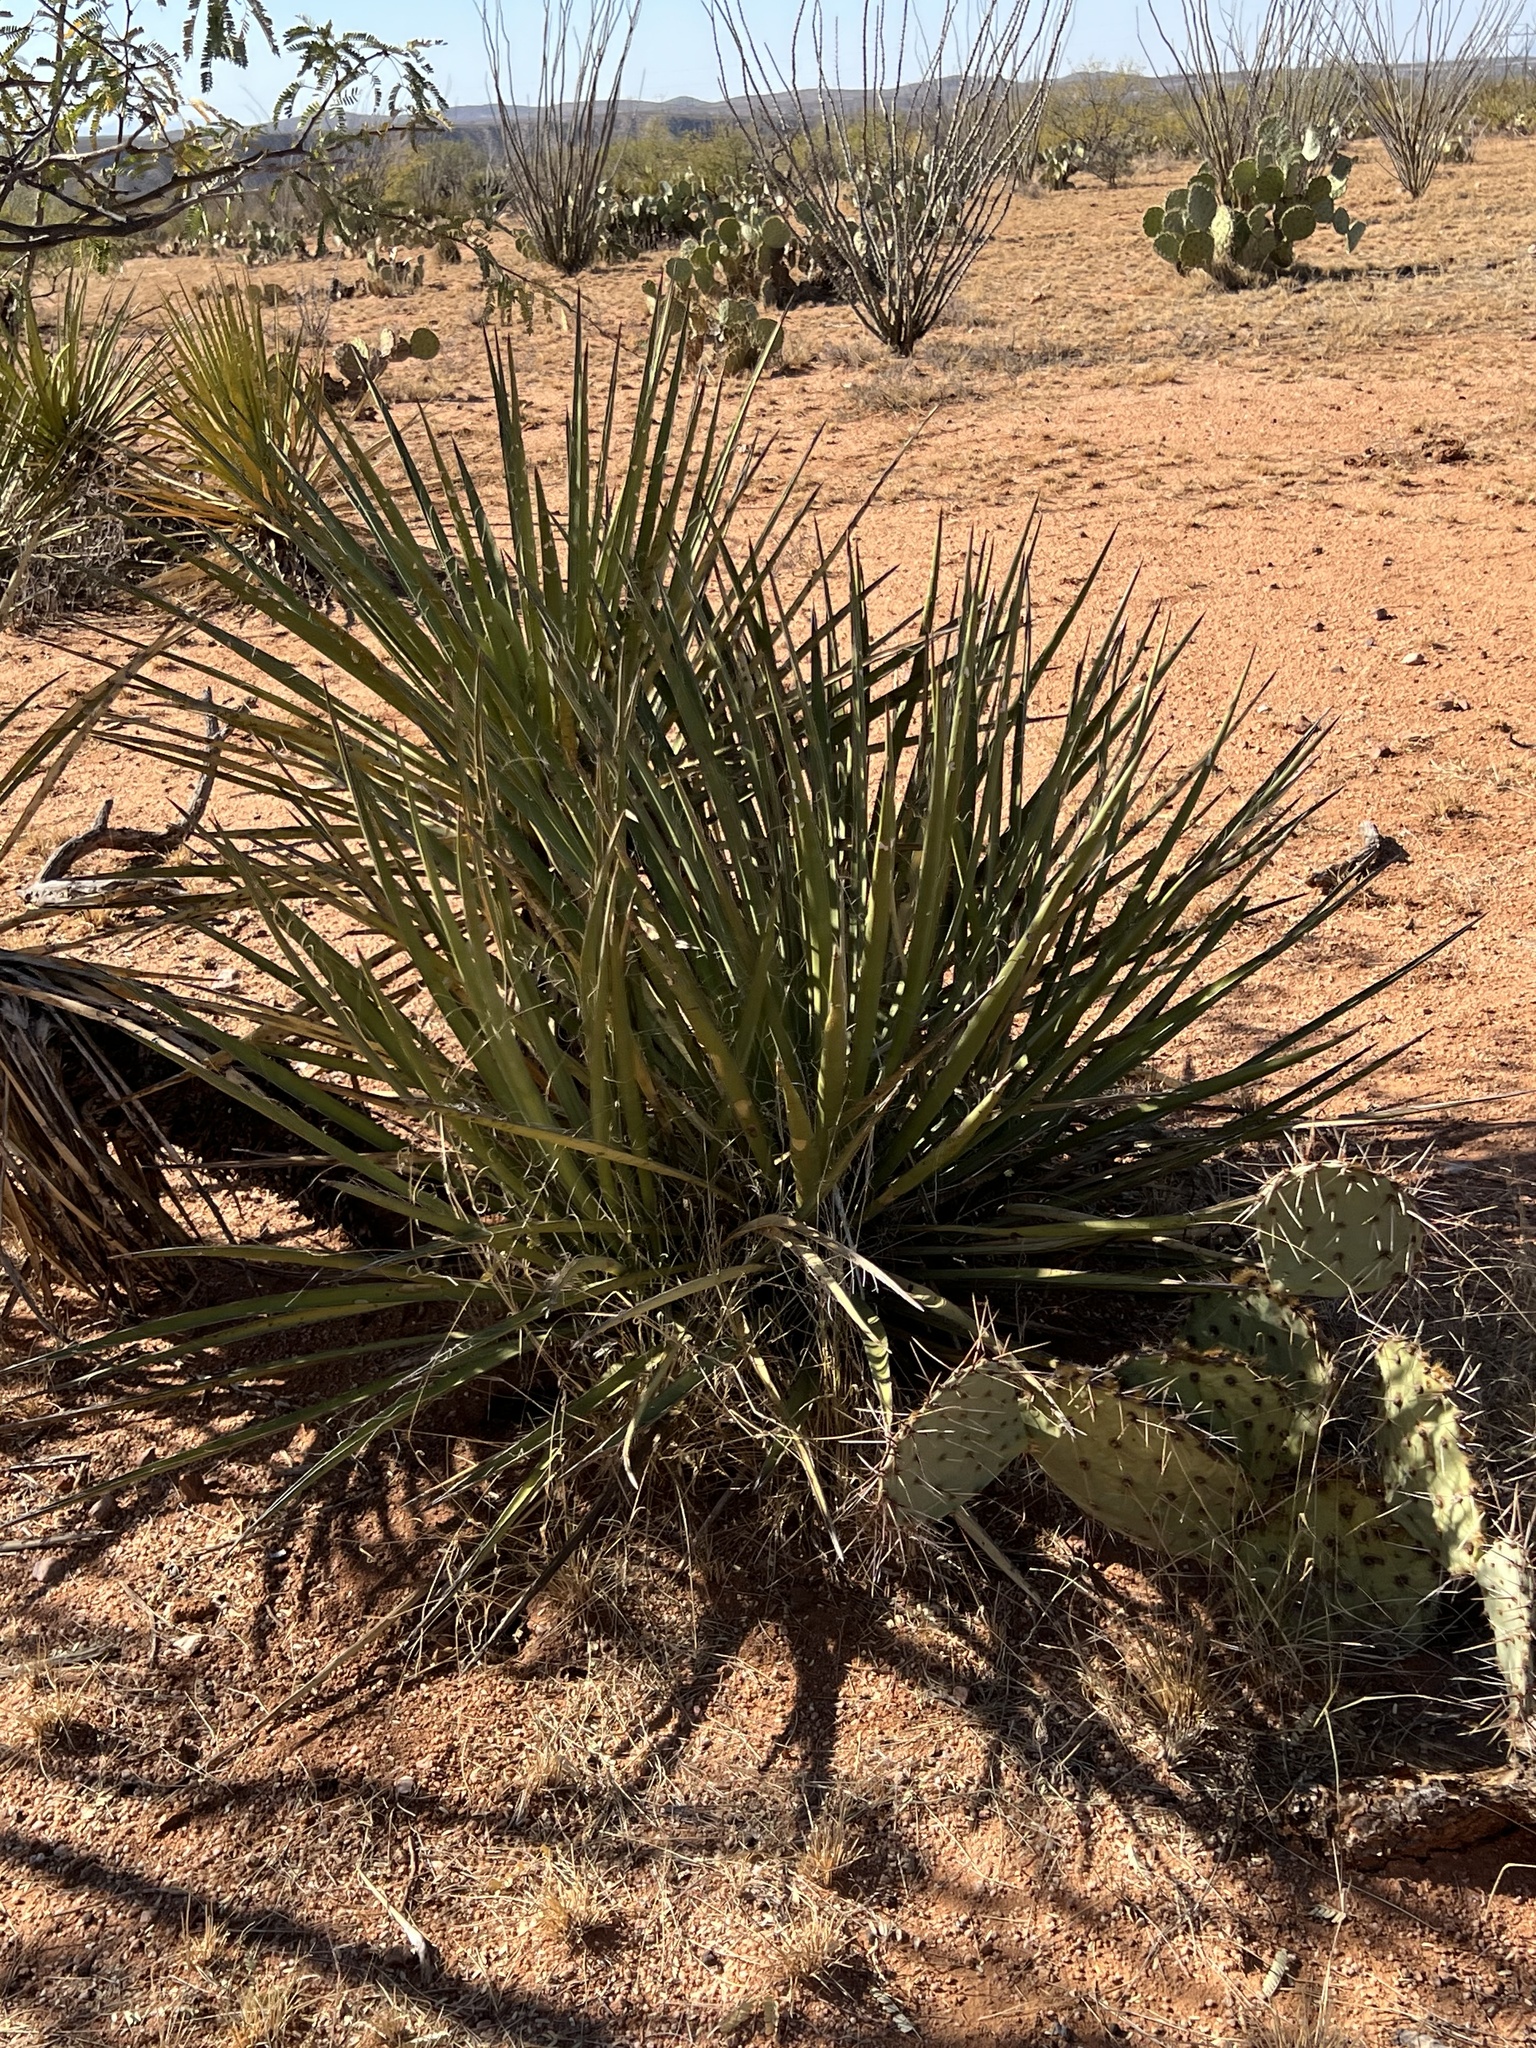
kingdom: Plantae
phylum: Tracheophyta
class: Liliopsida
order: Asparagales
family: Asparagaceae
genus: Yucca
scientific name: Yucca baccata
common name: Banana yucca
